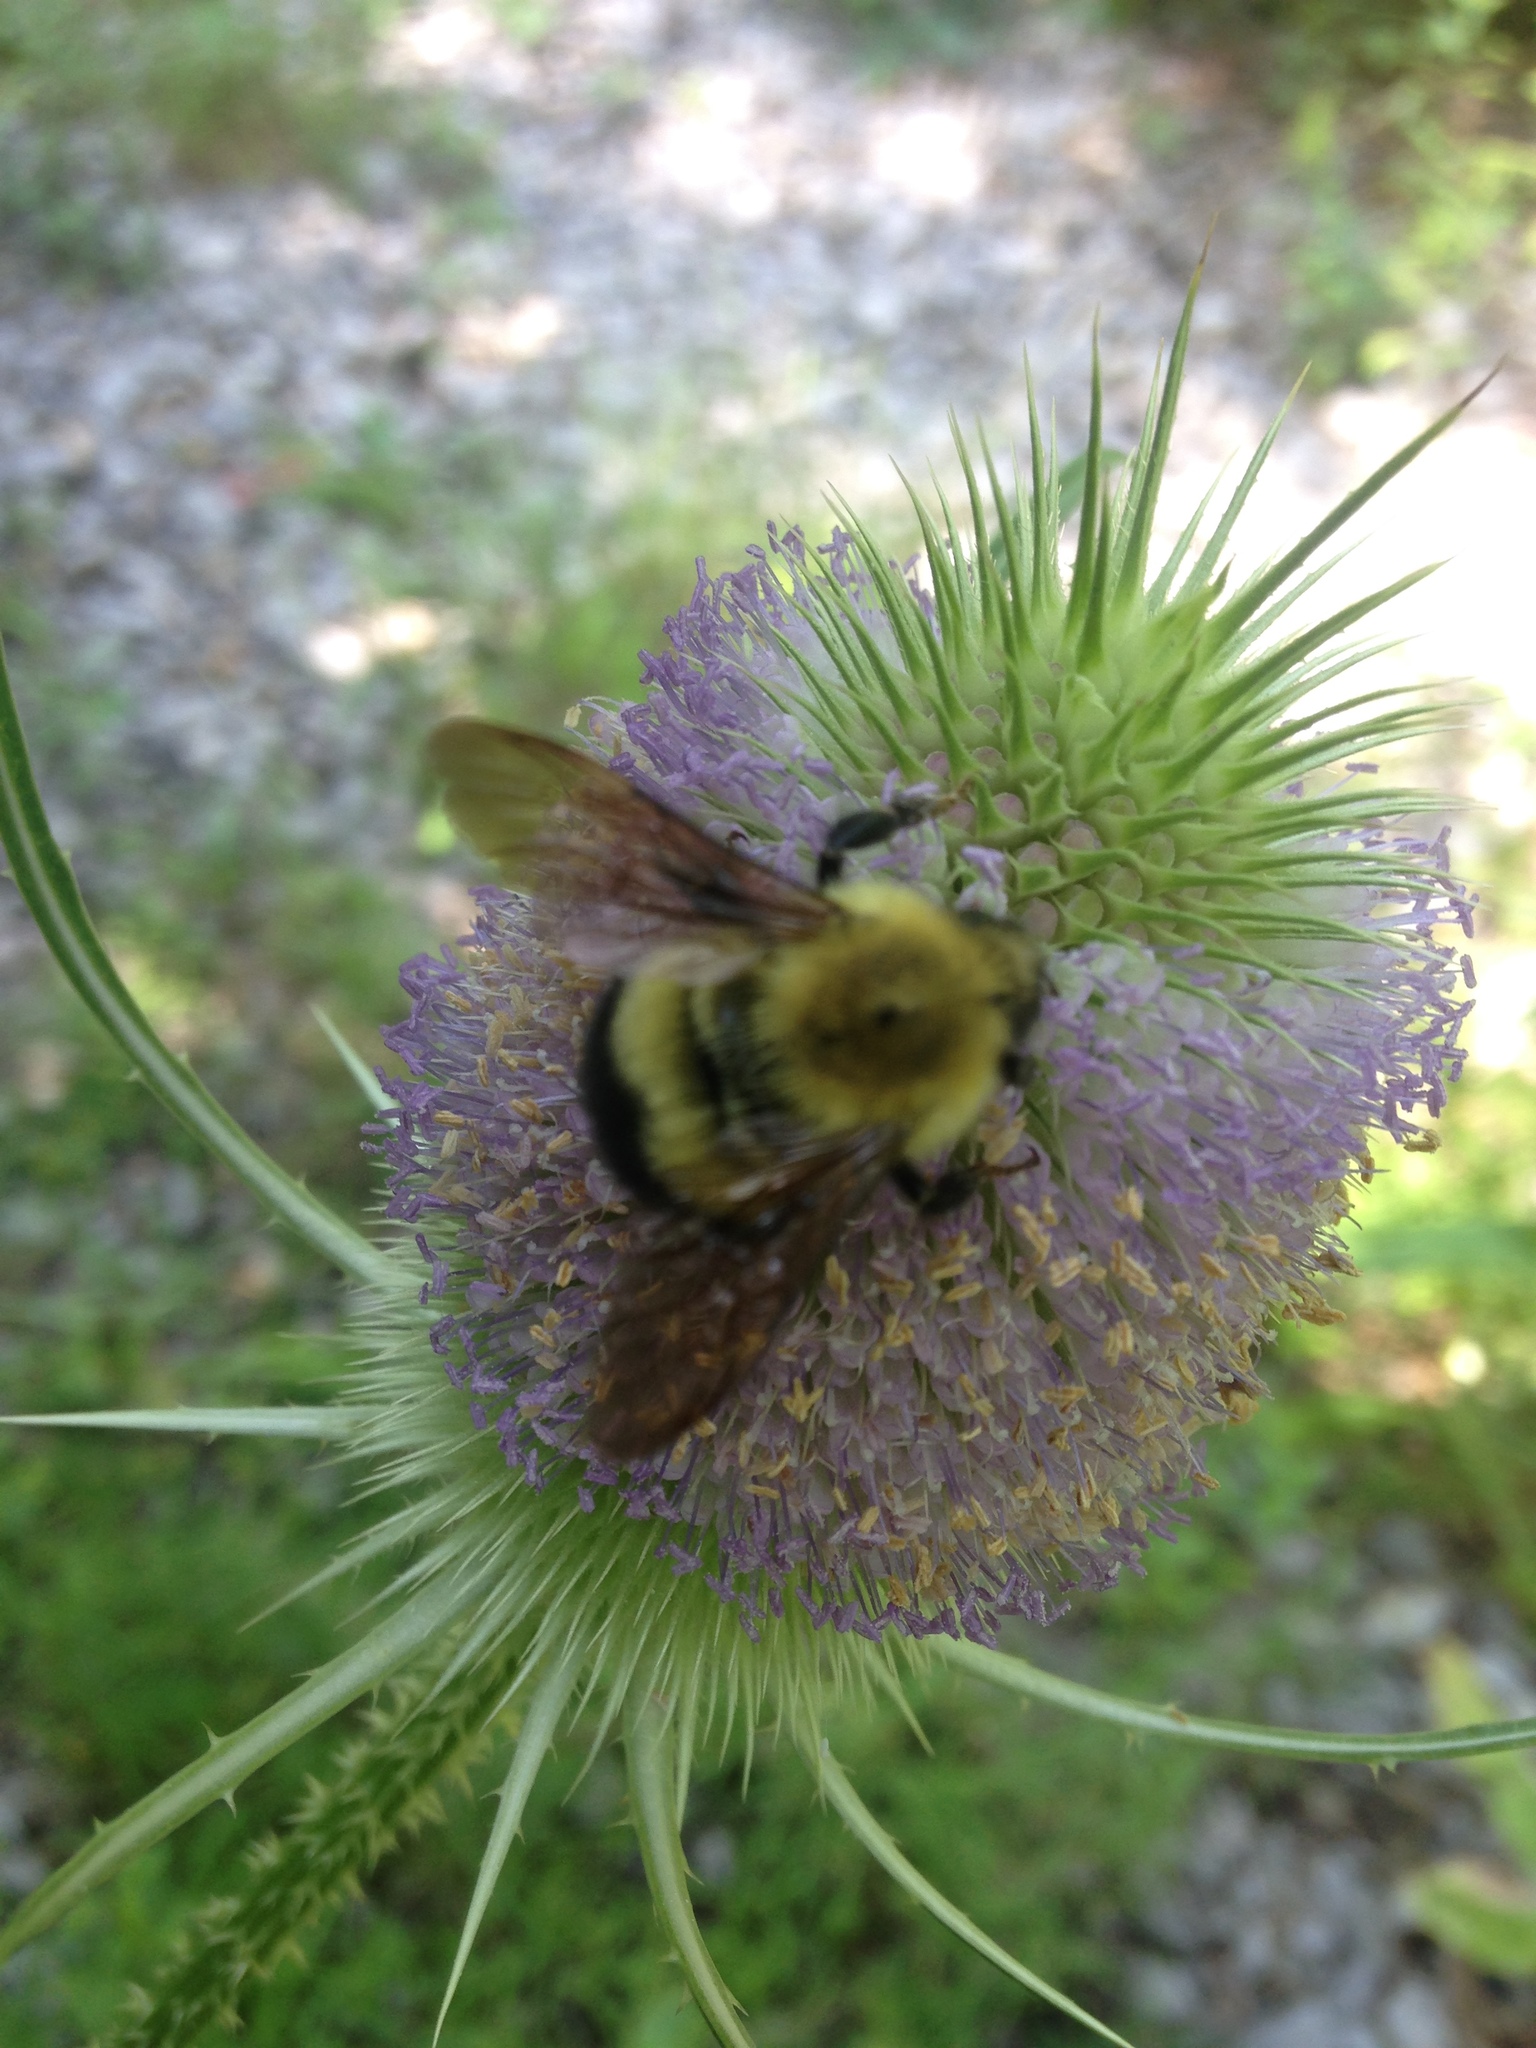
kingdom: Animalia
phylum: Arthropoda
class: Insecta
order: Hymenoptera
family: Apidae
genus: Bombus
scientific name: Bombus perplexus
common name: Confusing bumble bee
